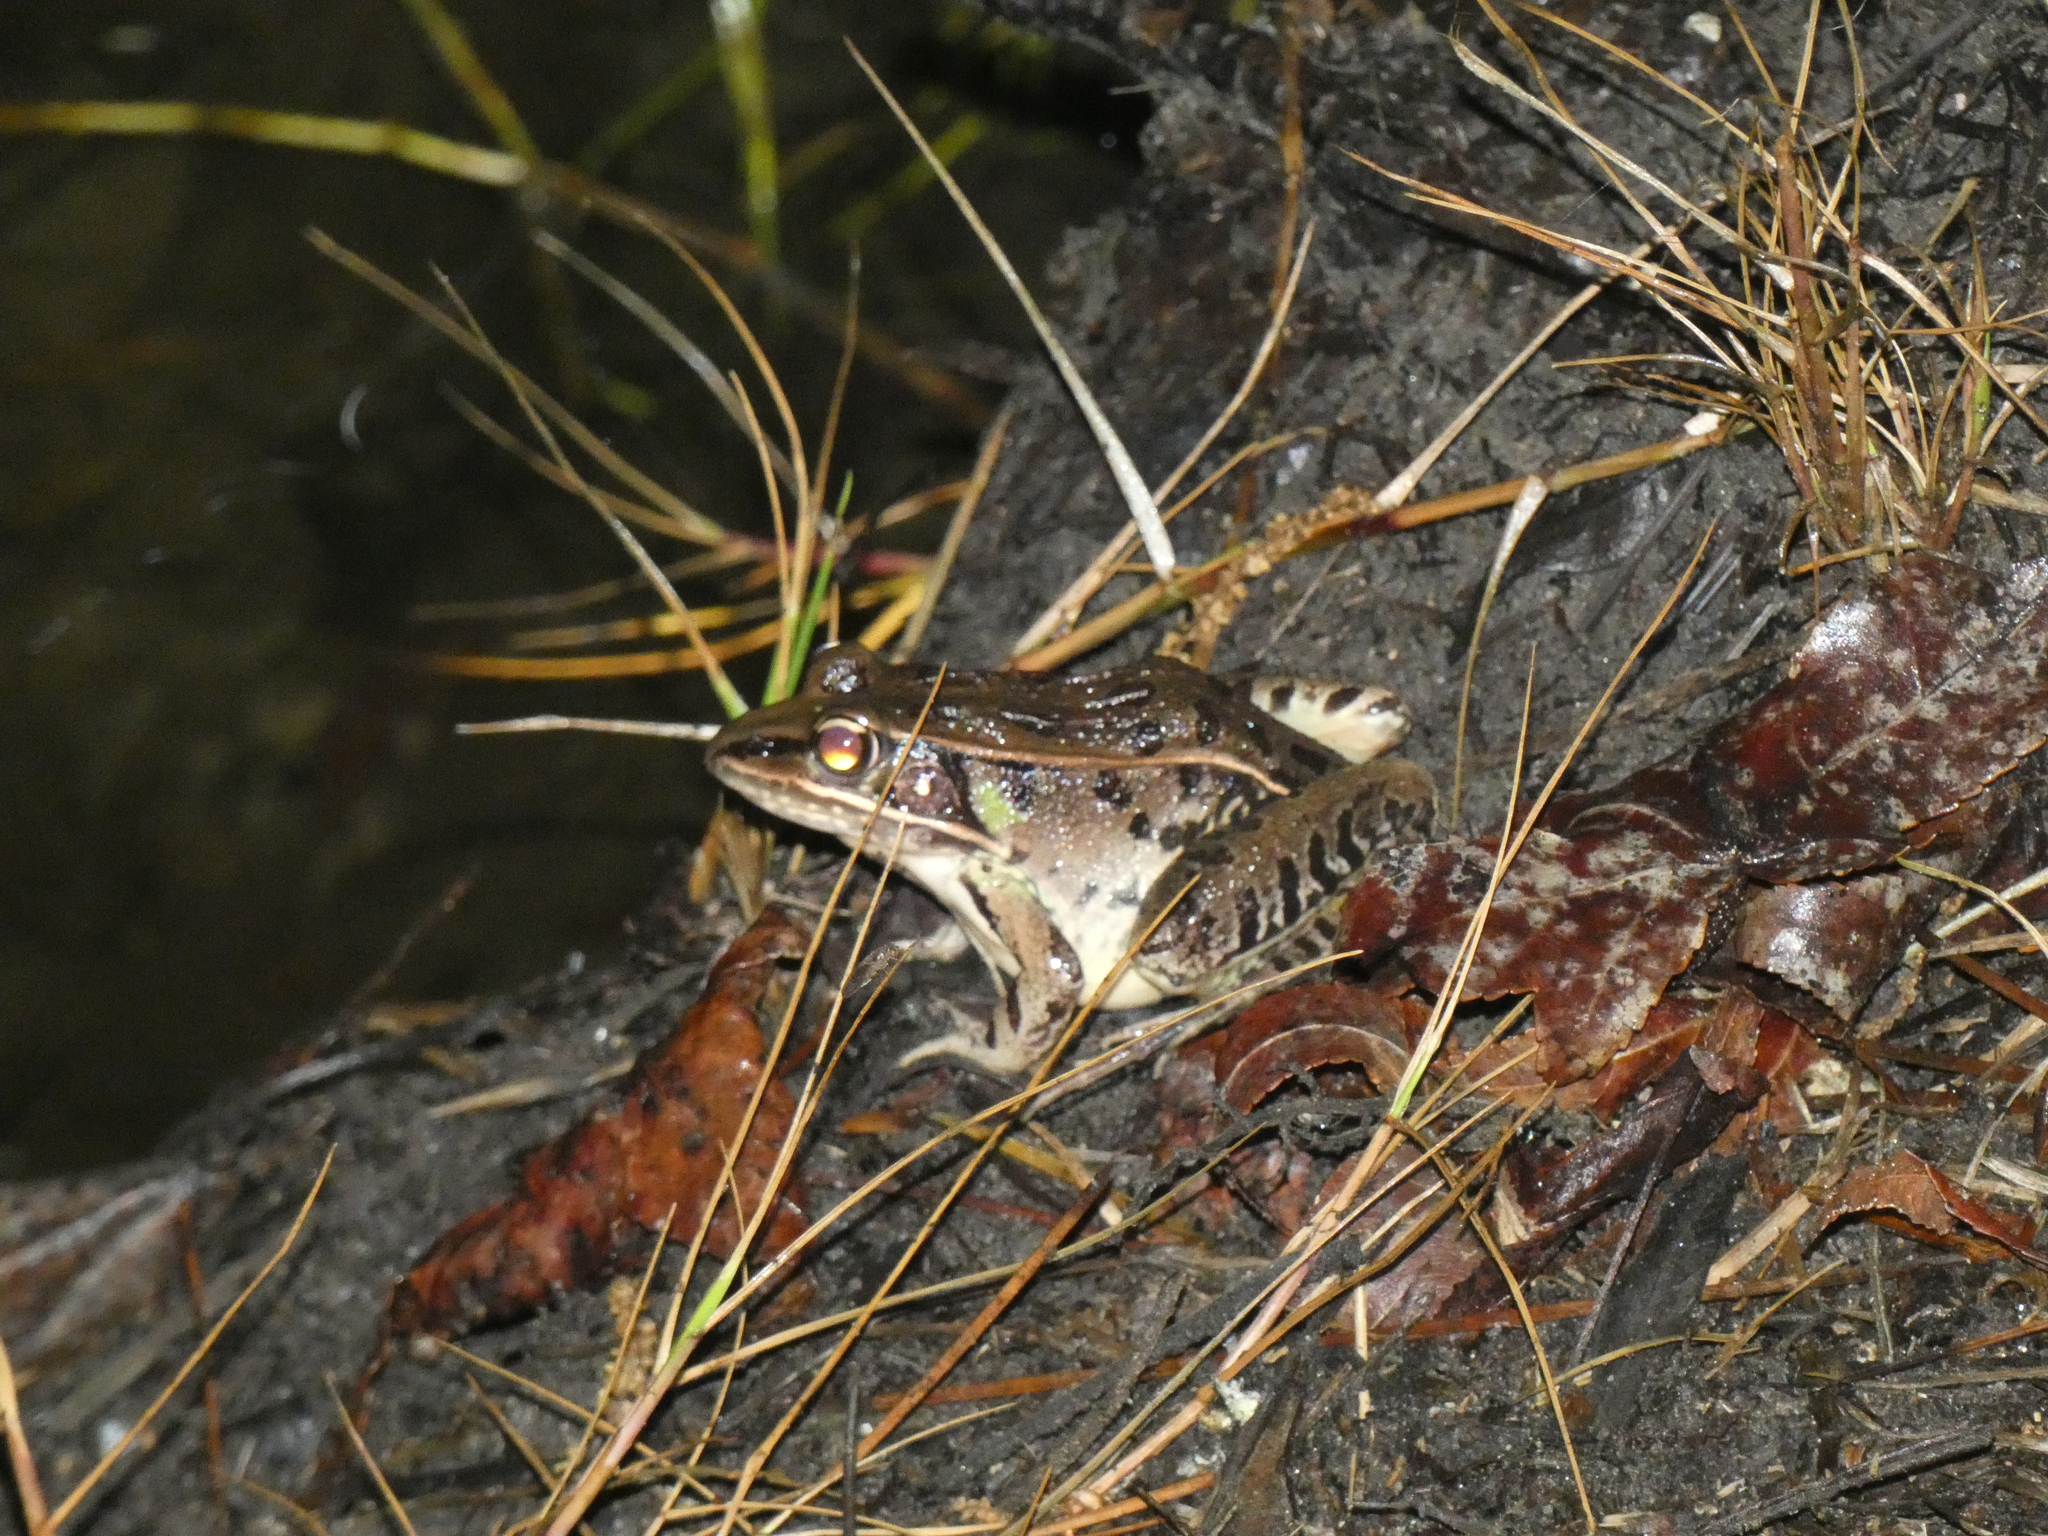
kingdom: Animalia
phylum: Chordata
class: Amphibia
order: Anura
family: Ranidae
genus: Lithobates
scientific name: Lithobates sphenocephalus
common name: Southern leopard frog
